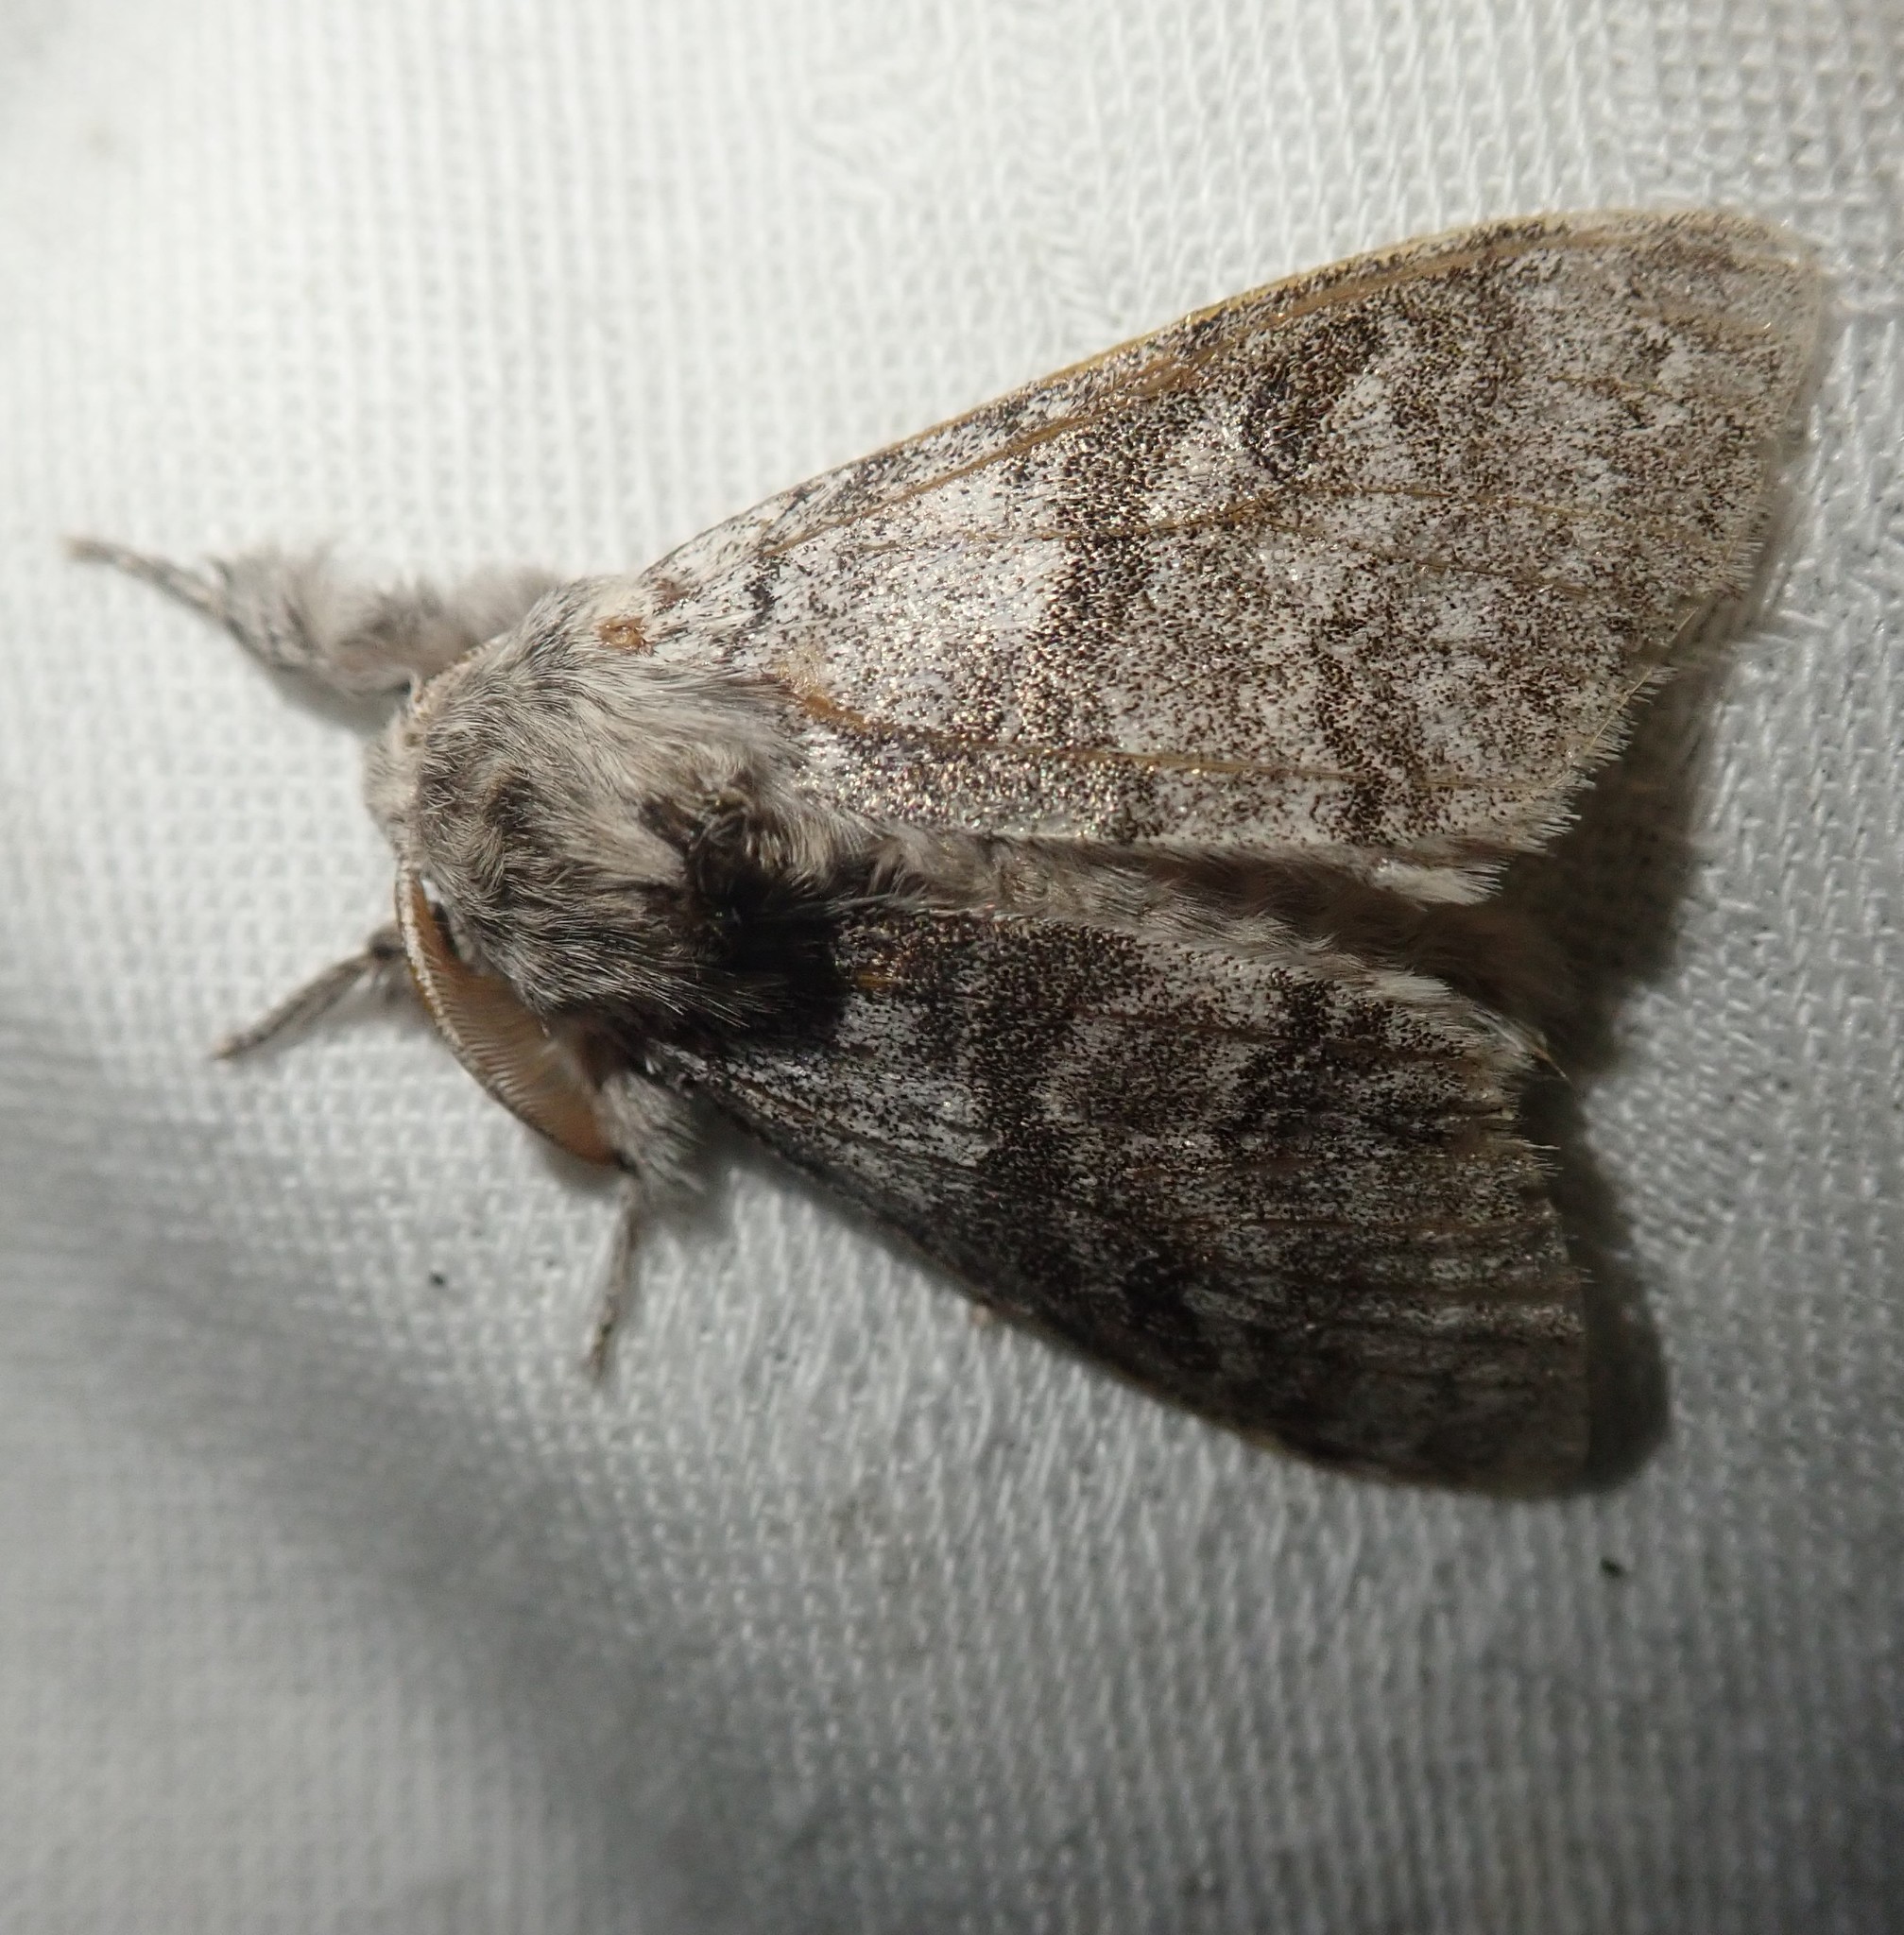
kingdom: Animalia
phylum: Arthropoda
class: Insecta
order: Lepidoptera
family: Erebidae
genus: Calliteara
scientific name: Calliteara pudibunda
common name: Pale tussock
